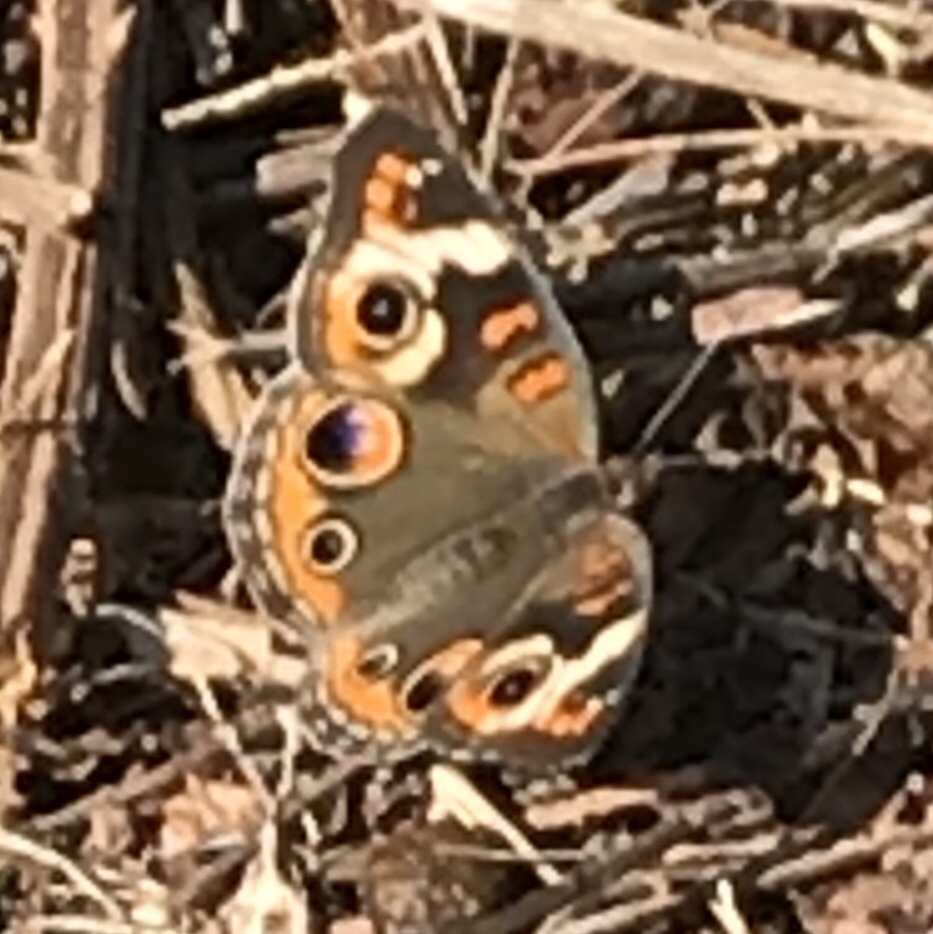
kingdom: Animalia
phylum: Arthropoda
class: Insecta
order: Lepidoptera
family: Nymphalidae
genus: Junonia
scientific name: Junonia coenia
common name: Common buckeye
